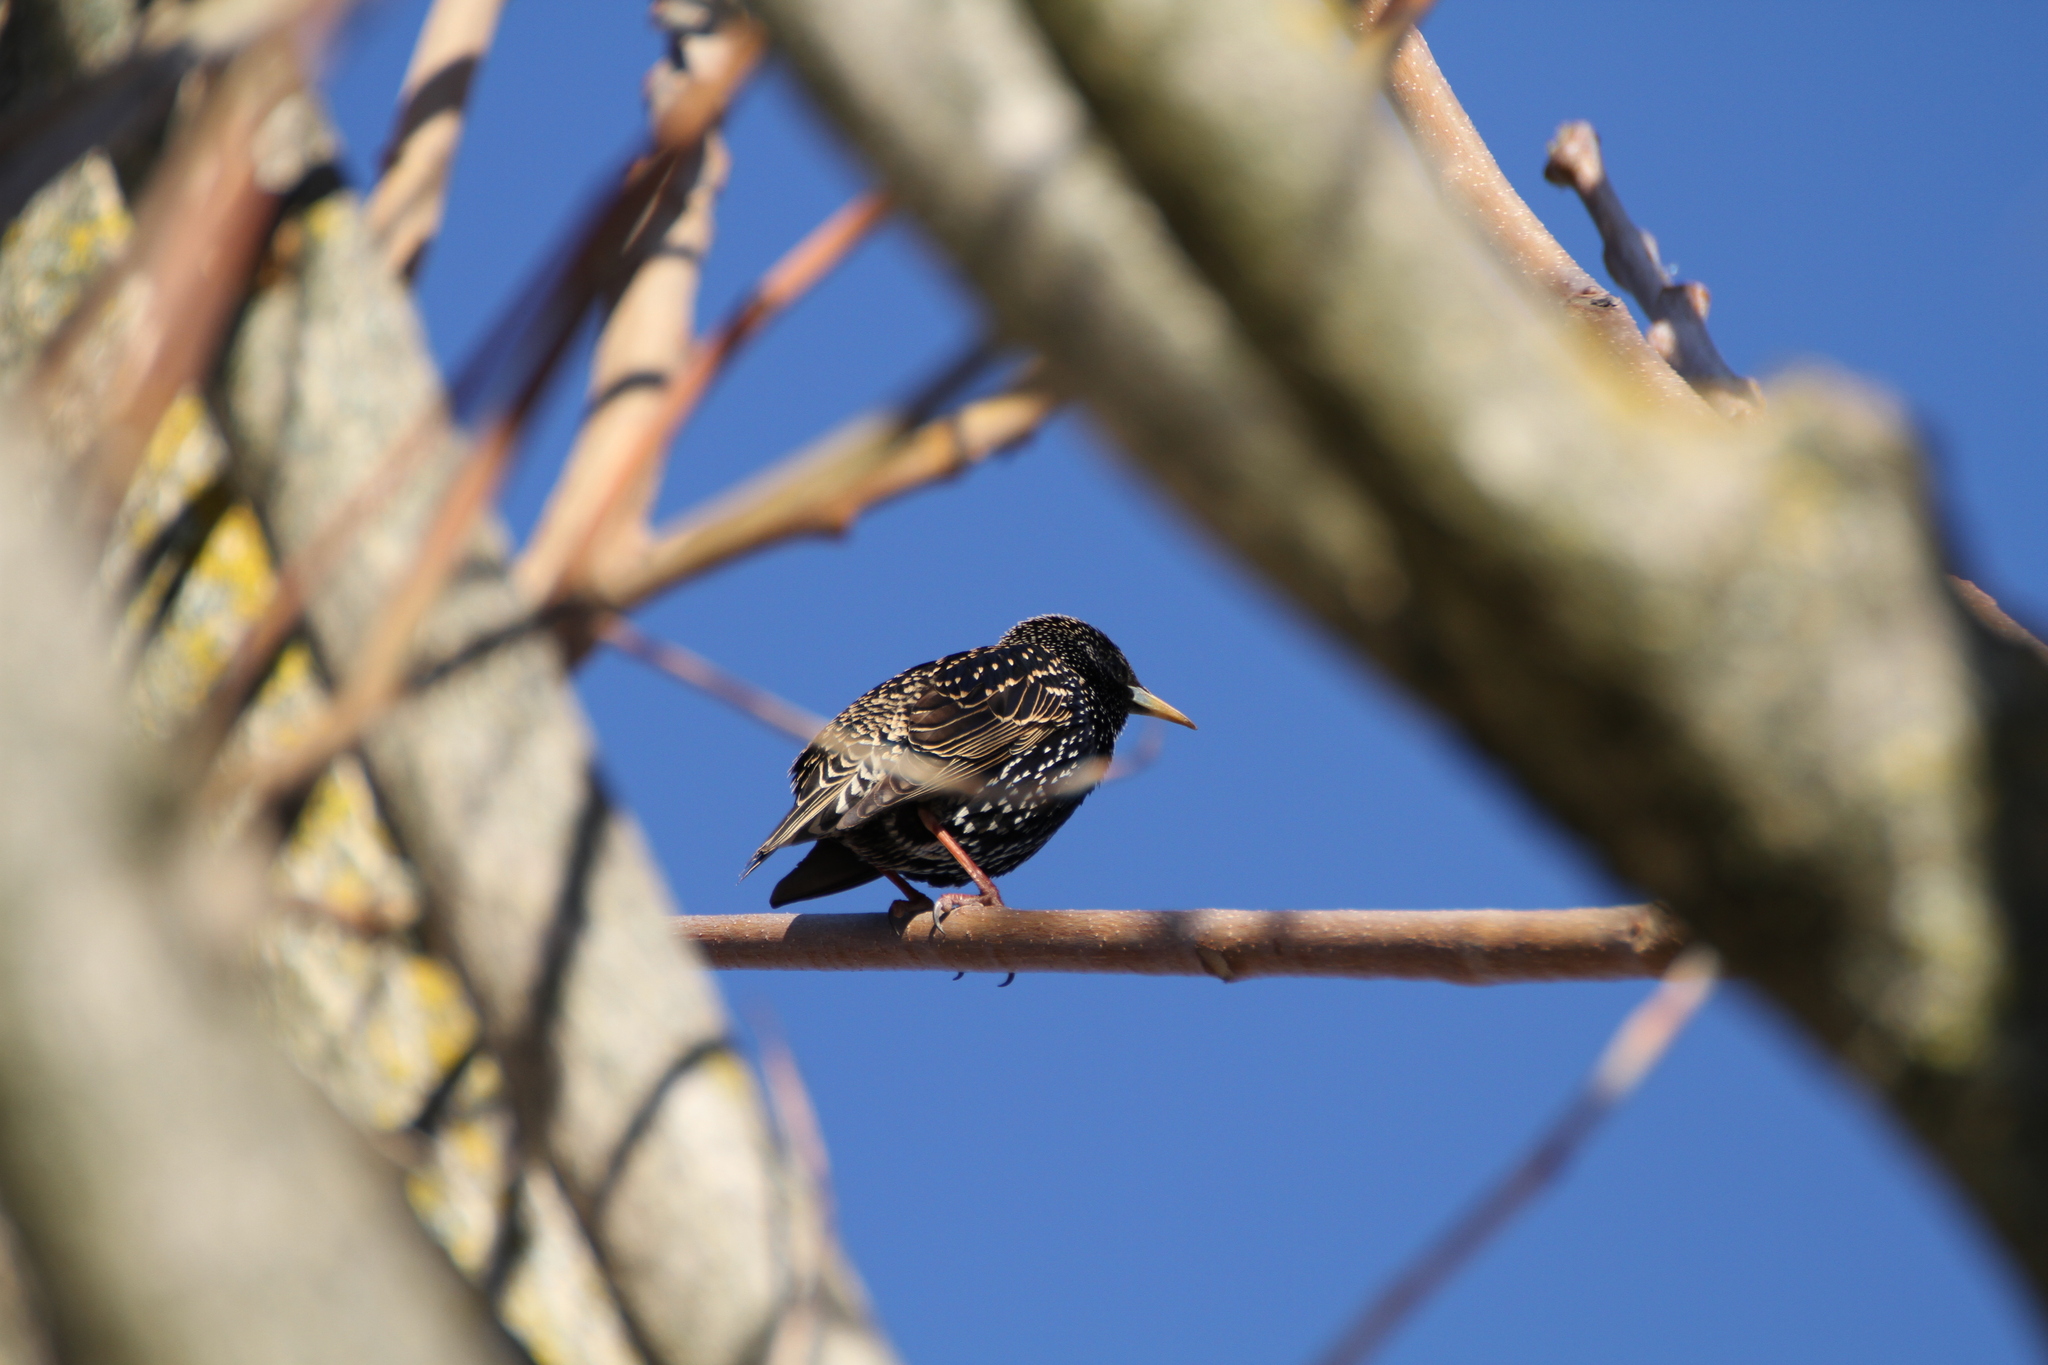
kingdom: Animalia
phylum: Chordata
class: Aves
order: Passeriformes
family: Sturnidae
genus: Sturnus
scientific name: Sturnus vulgaris
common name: Common starling
